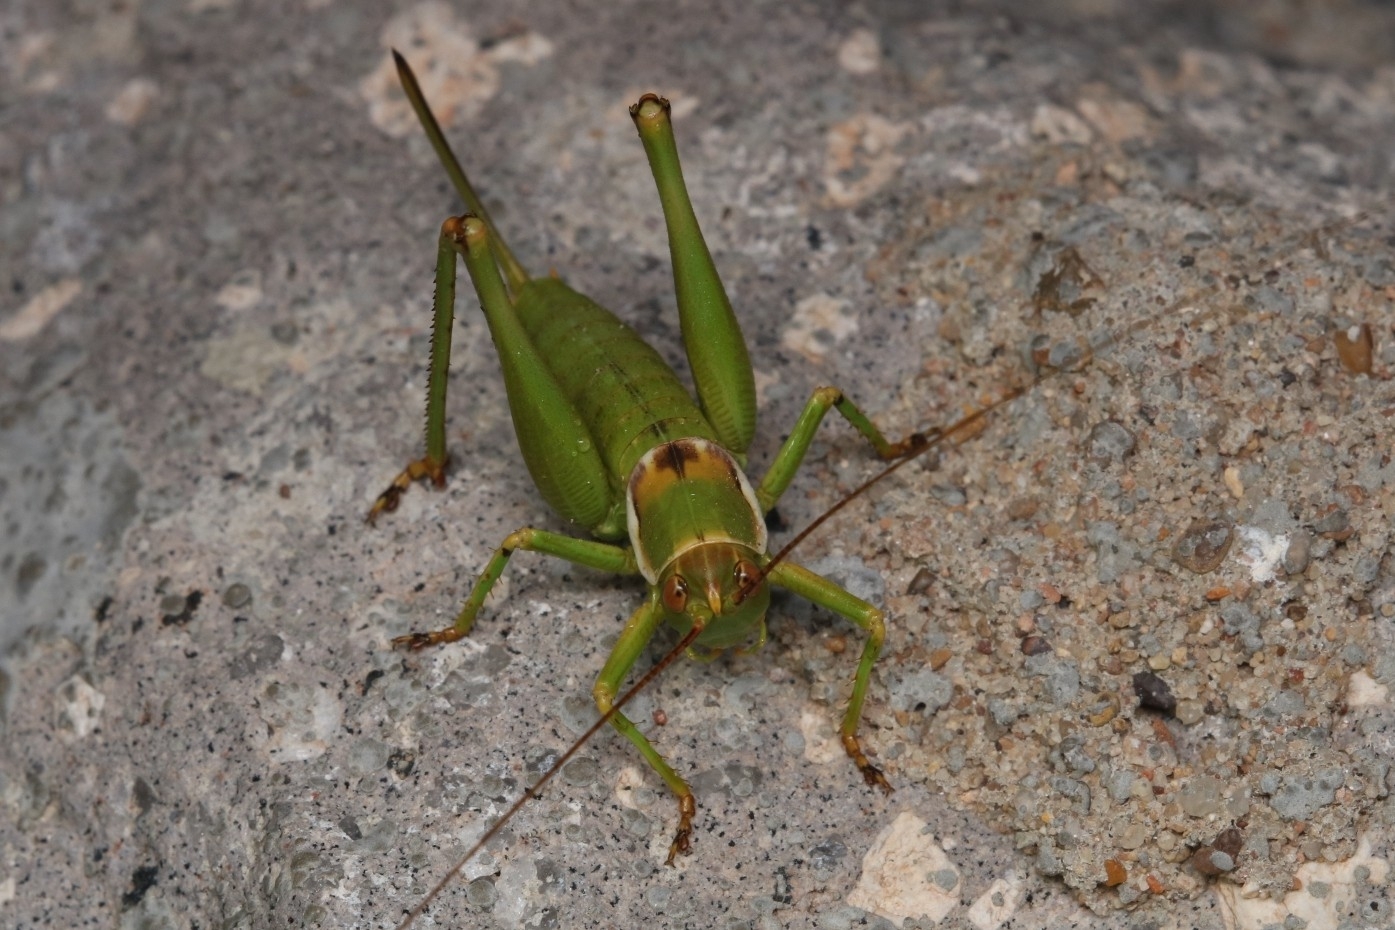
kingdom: Animalia
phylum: Arthropoda
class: Insecta
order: Orthoptera
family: Tettigoniidae
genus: Eremopedes
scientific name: Eremopedes covilleae
